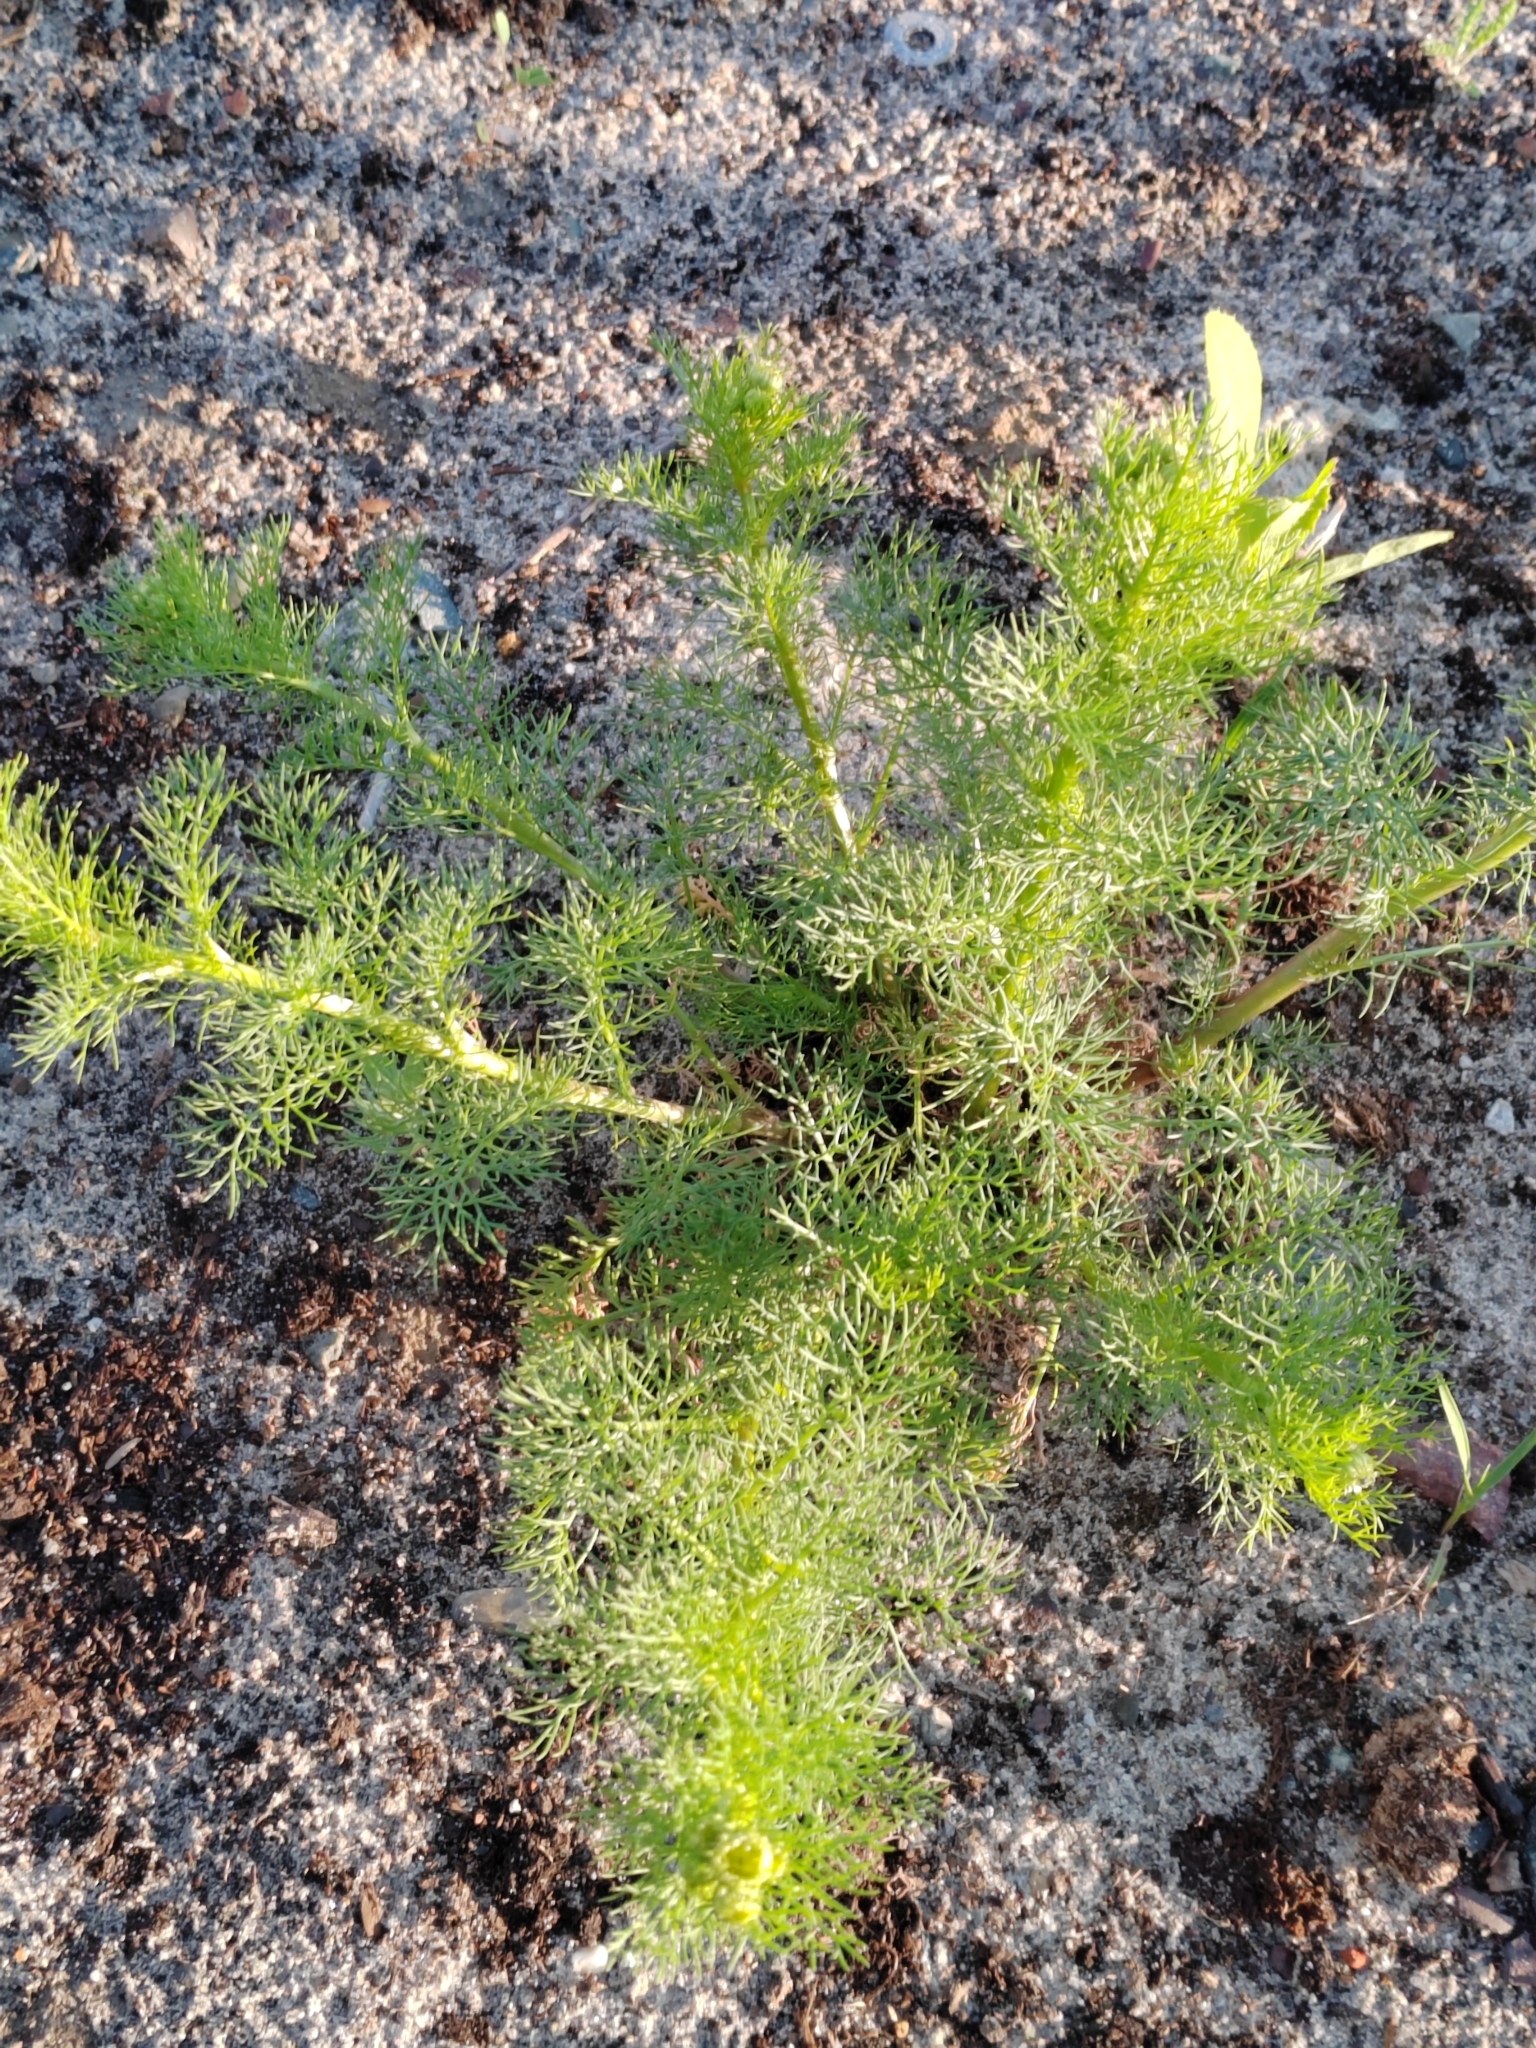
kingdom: Plantae
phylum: Tracheophyta
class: Magnoliopsida
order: Asterales
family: Asteraceae
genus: Tripleurospermum
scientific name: Tripleurospermum inodorum
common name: Scentless mayweed
